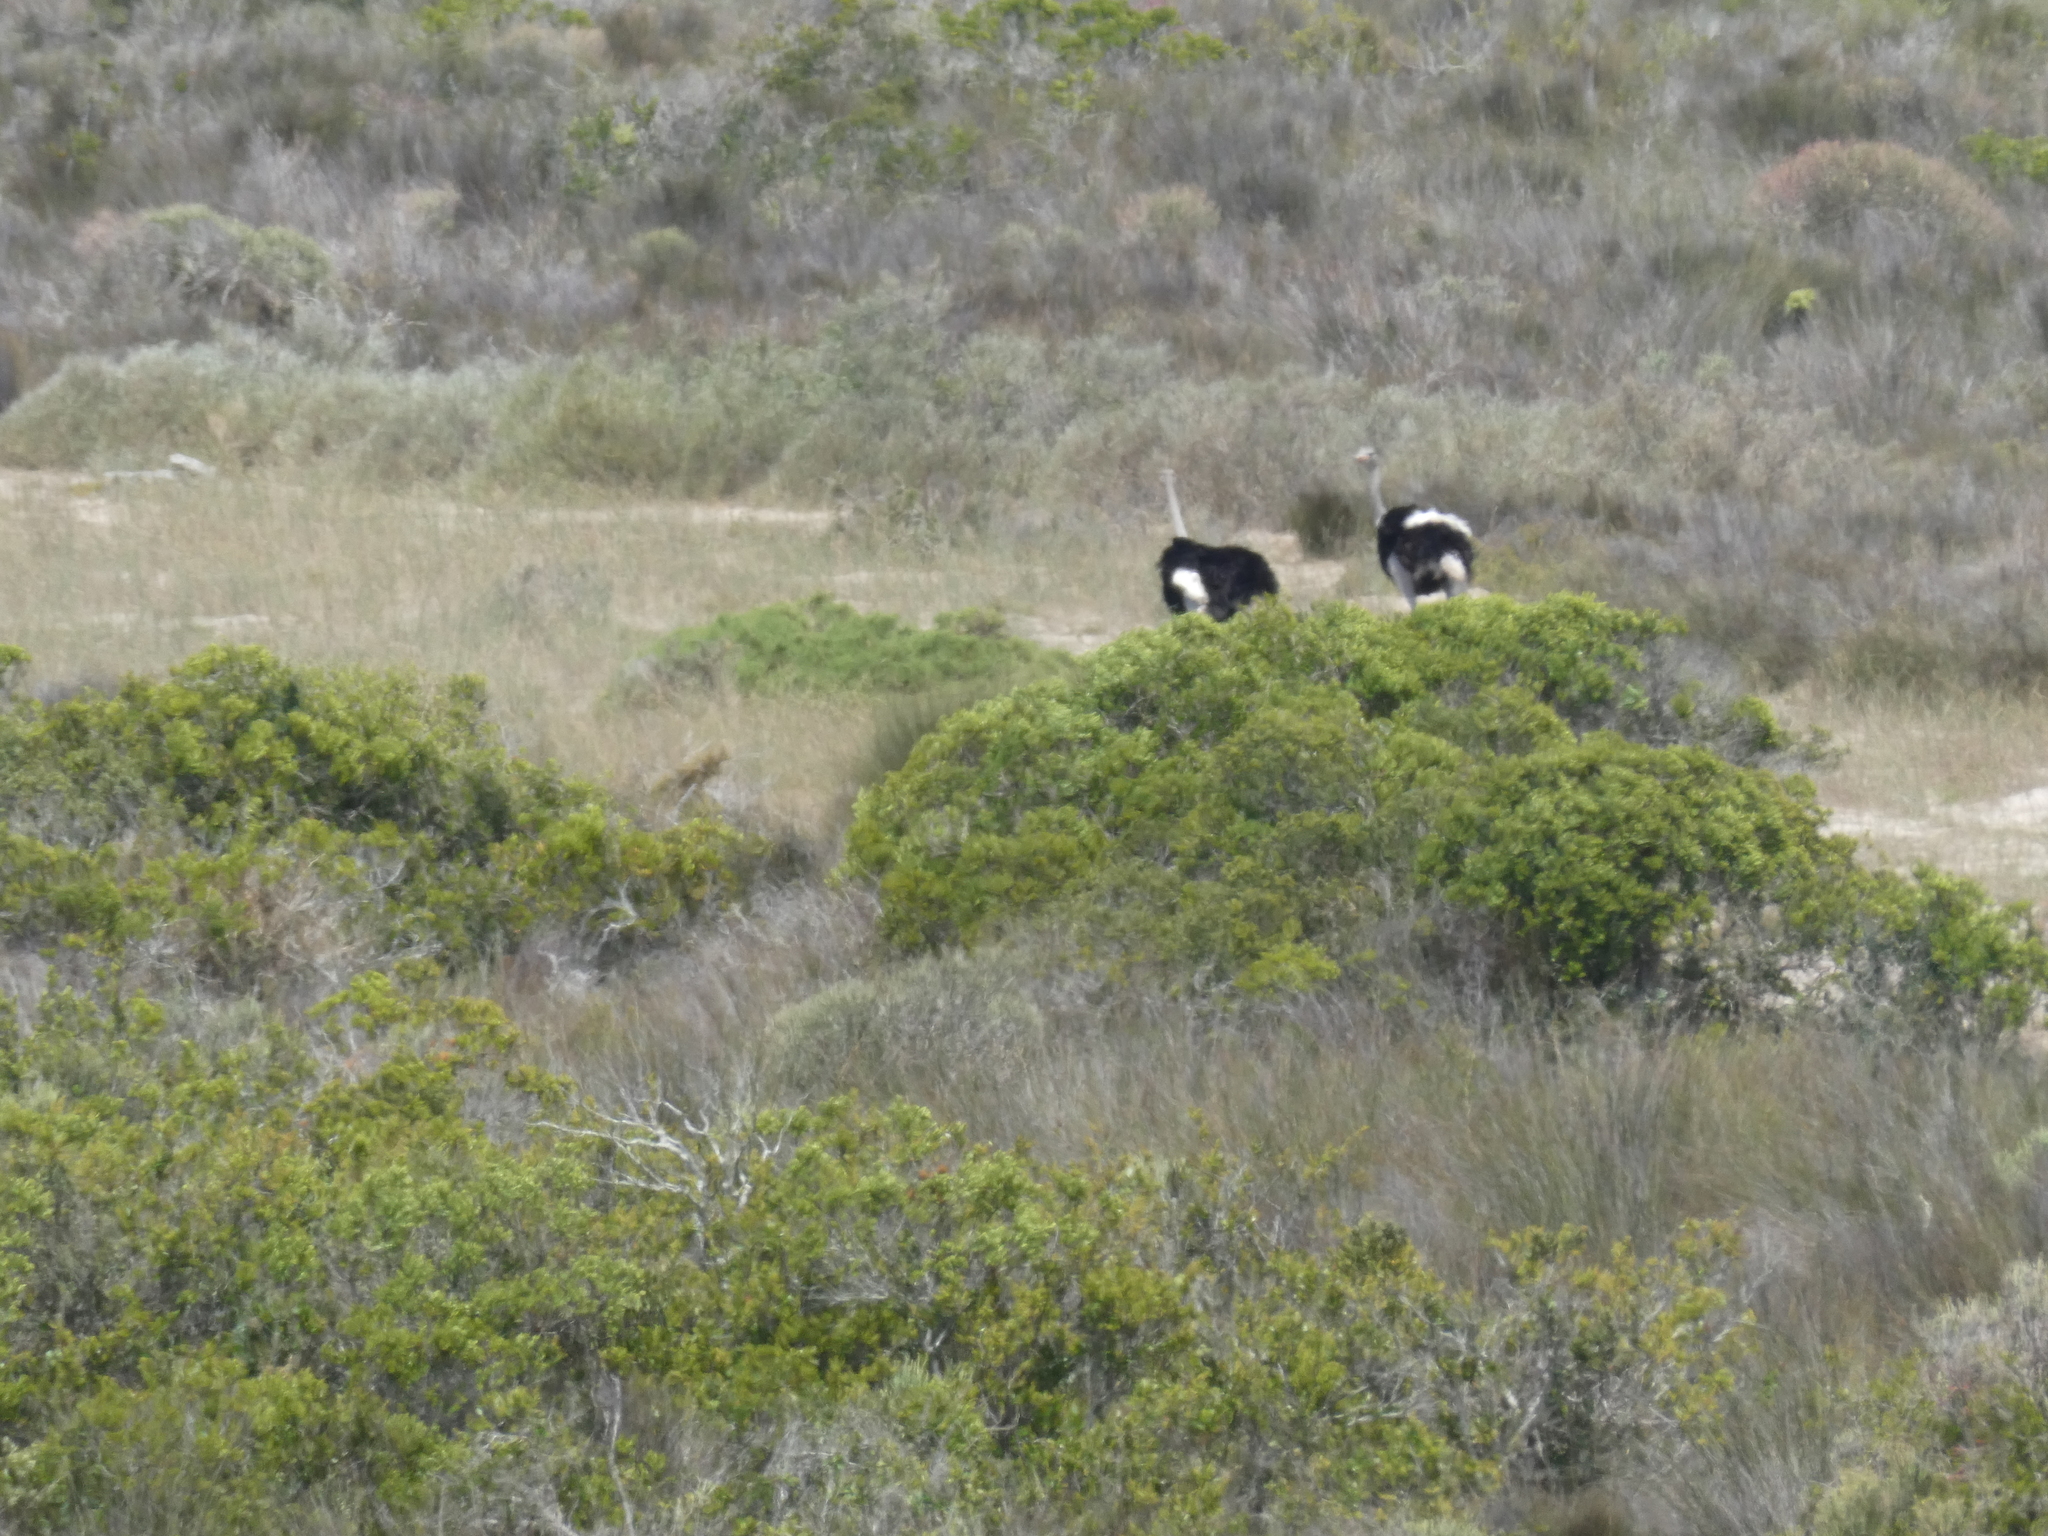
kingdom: Animalia
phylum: Chordata
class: Aves
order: Struthioniformes
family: Struthionidae
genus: Struthio
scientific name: Struthio camelus
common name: Common ostrich
